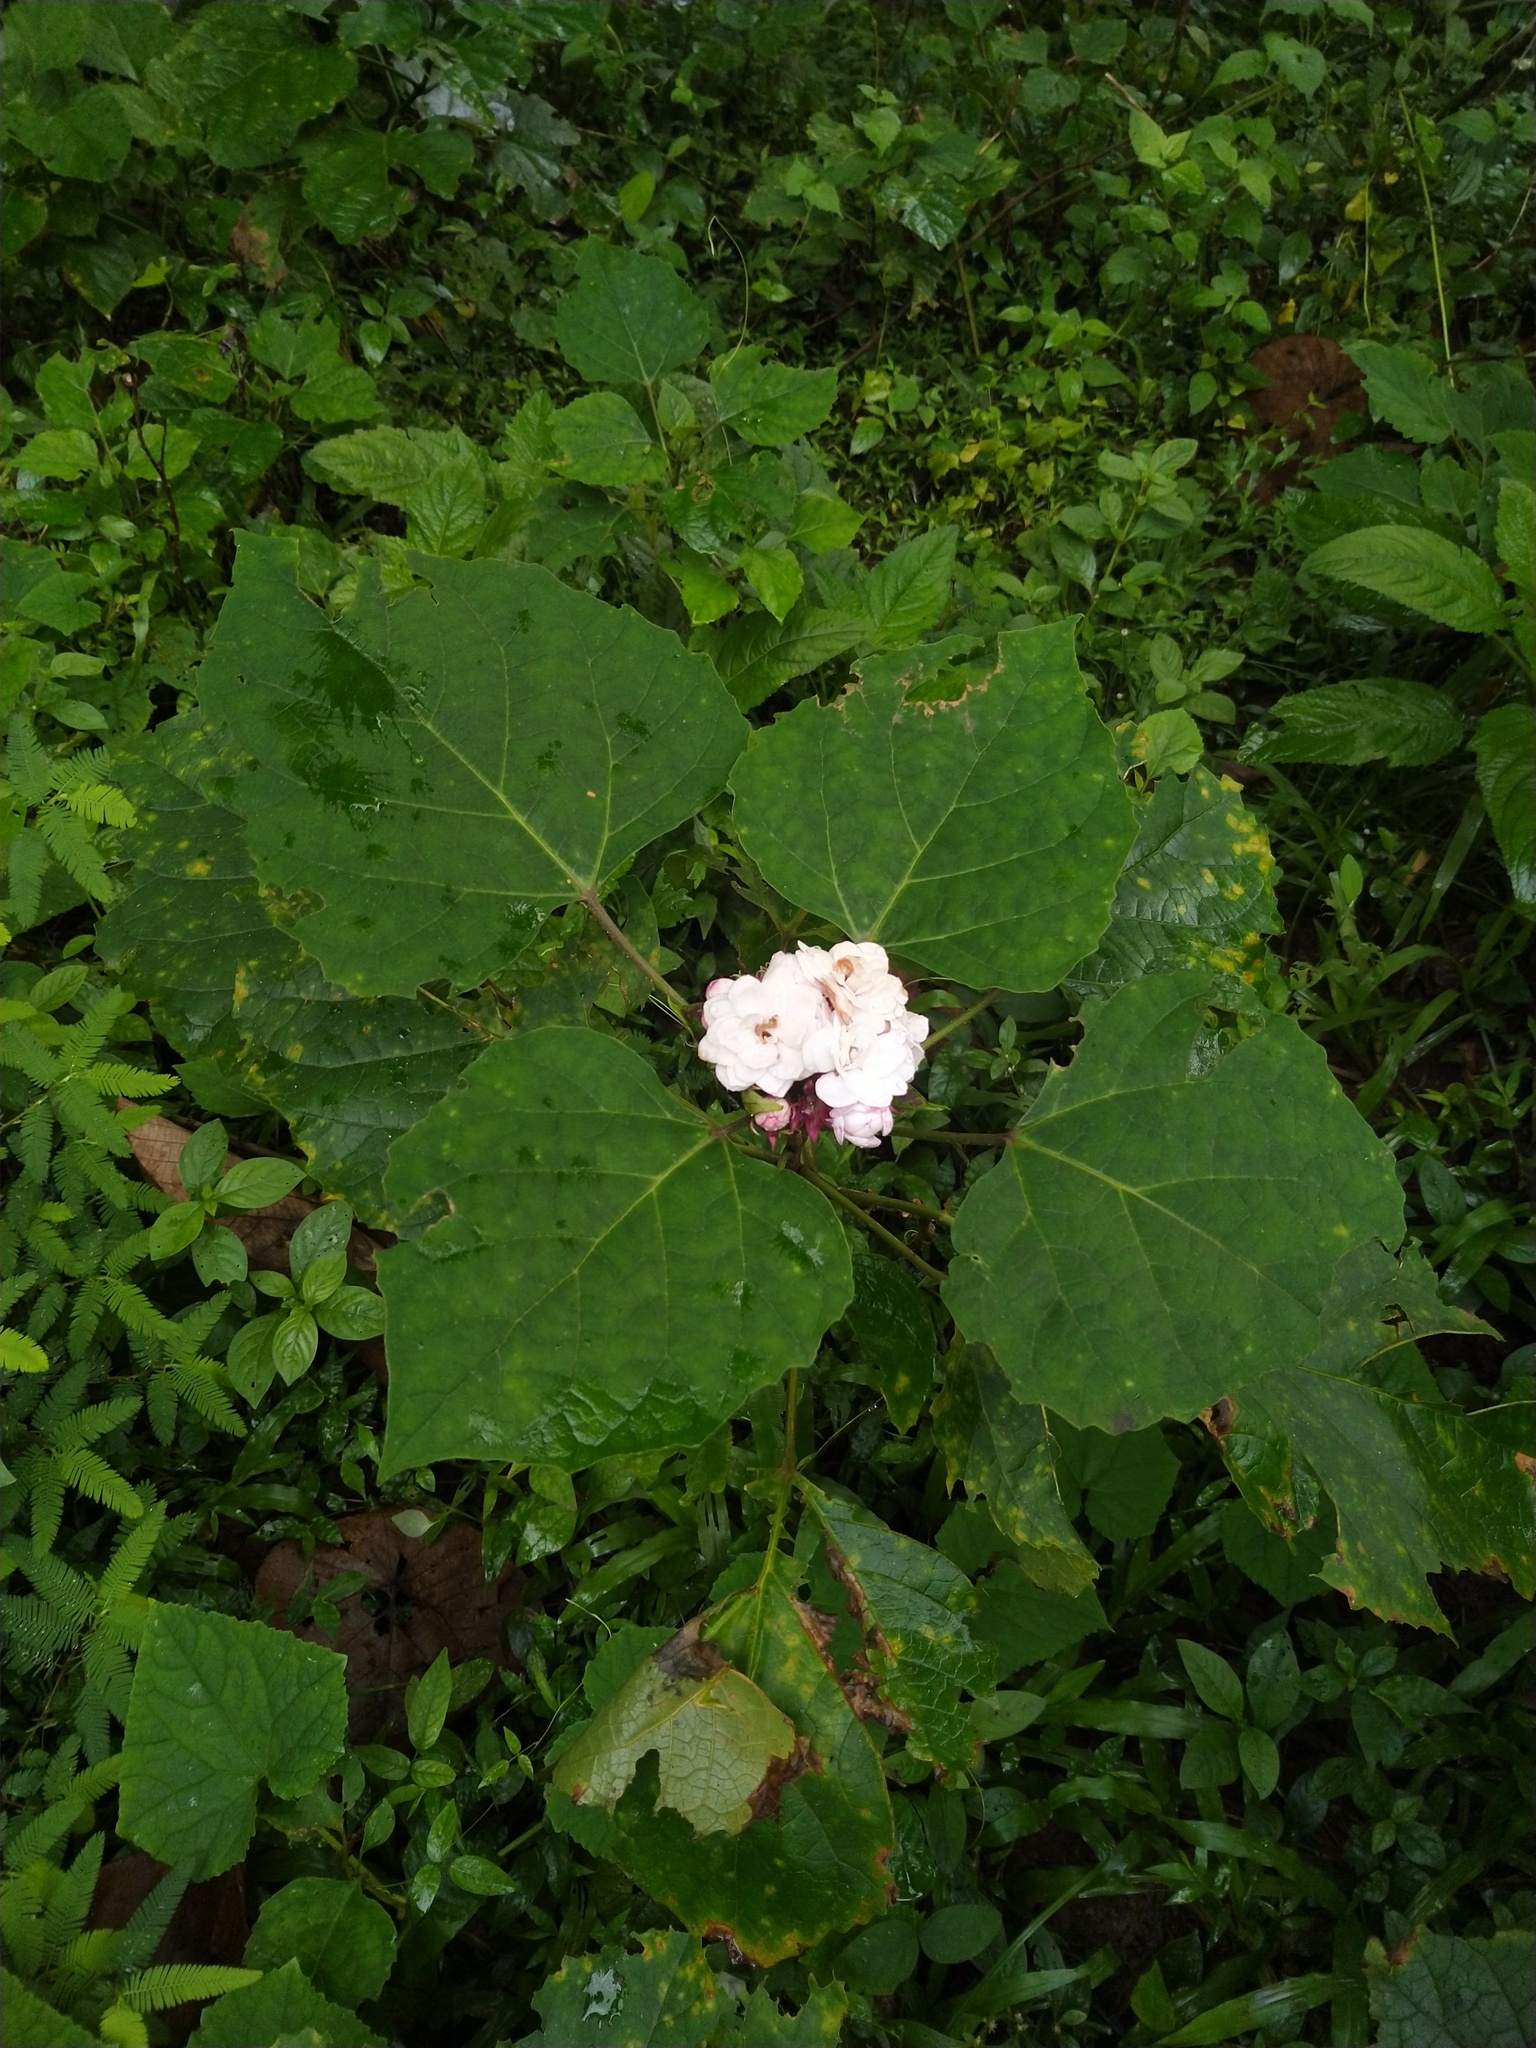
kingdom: Plantae
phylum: Tracheophyta
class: Magnoliopsida
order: Lamiales
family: Lamiaceae
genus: Clerodendrum
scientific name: Clerodendrum chinense
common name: Stickbush
